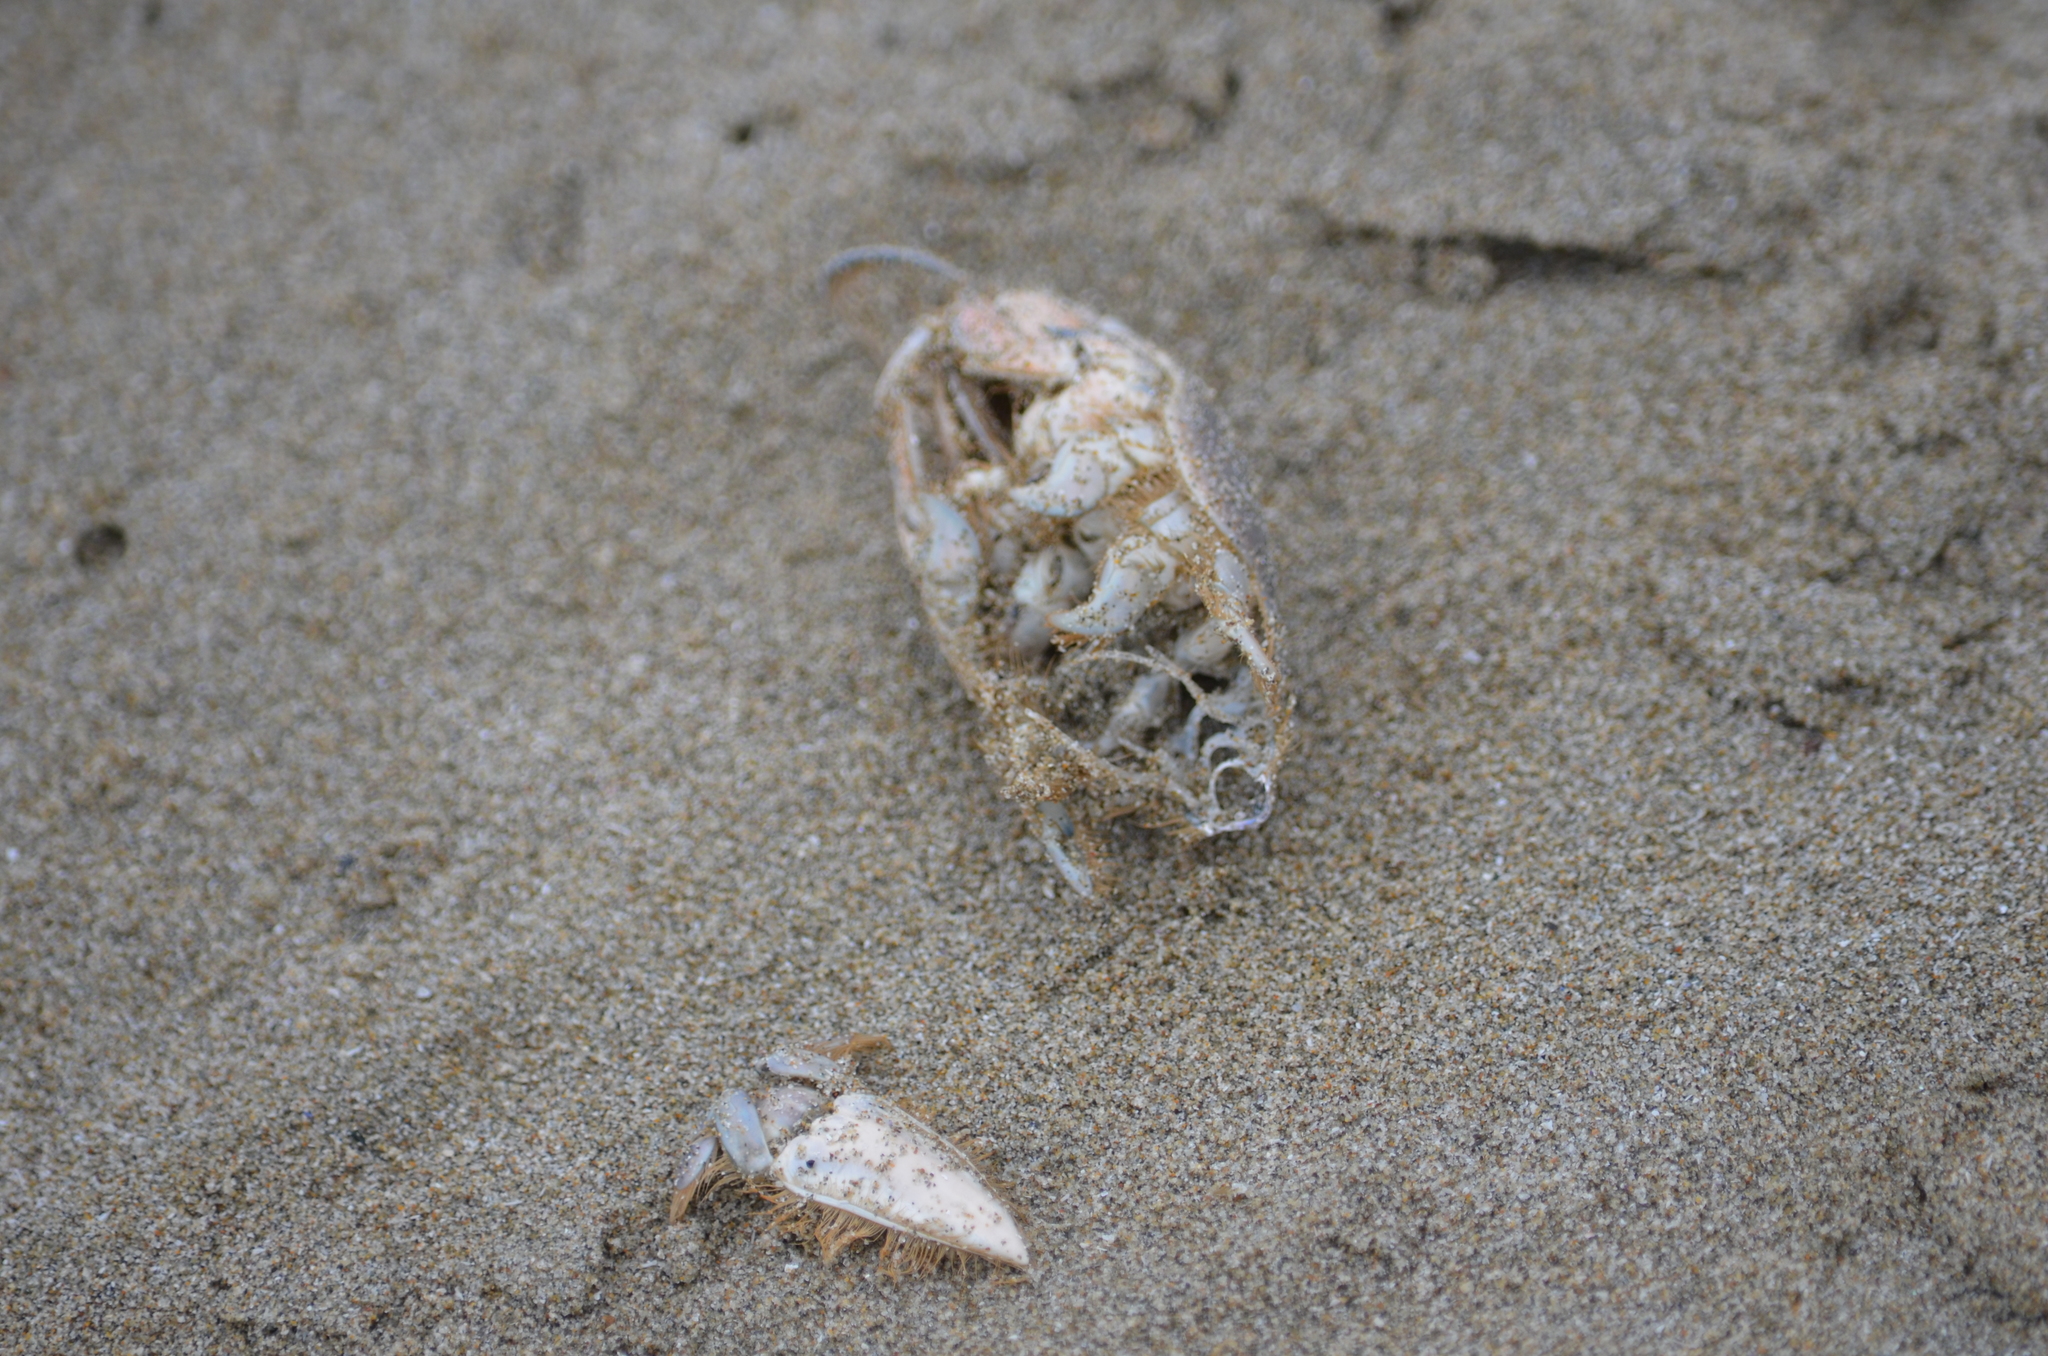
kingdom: Animalia
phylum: Arthropoda
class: Malacostraca
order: Decapoda
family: Hippidae
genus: Emerita
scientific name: Emerita analoga
